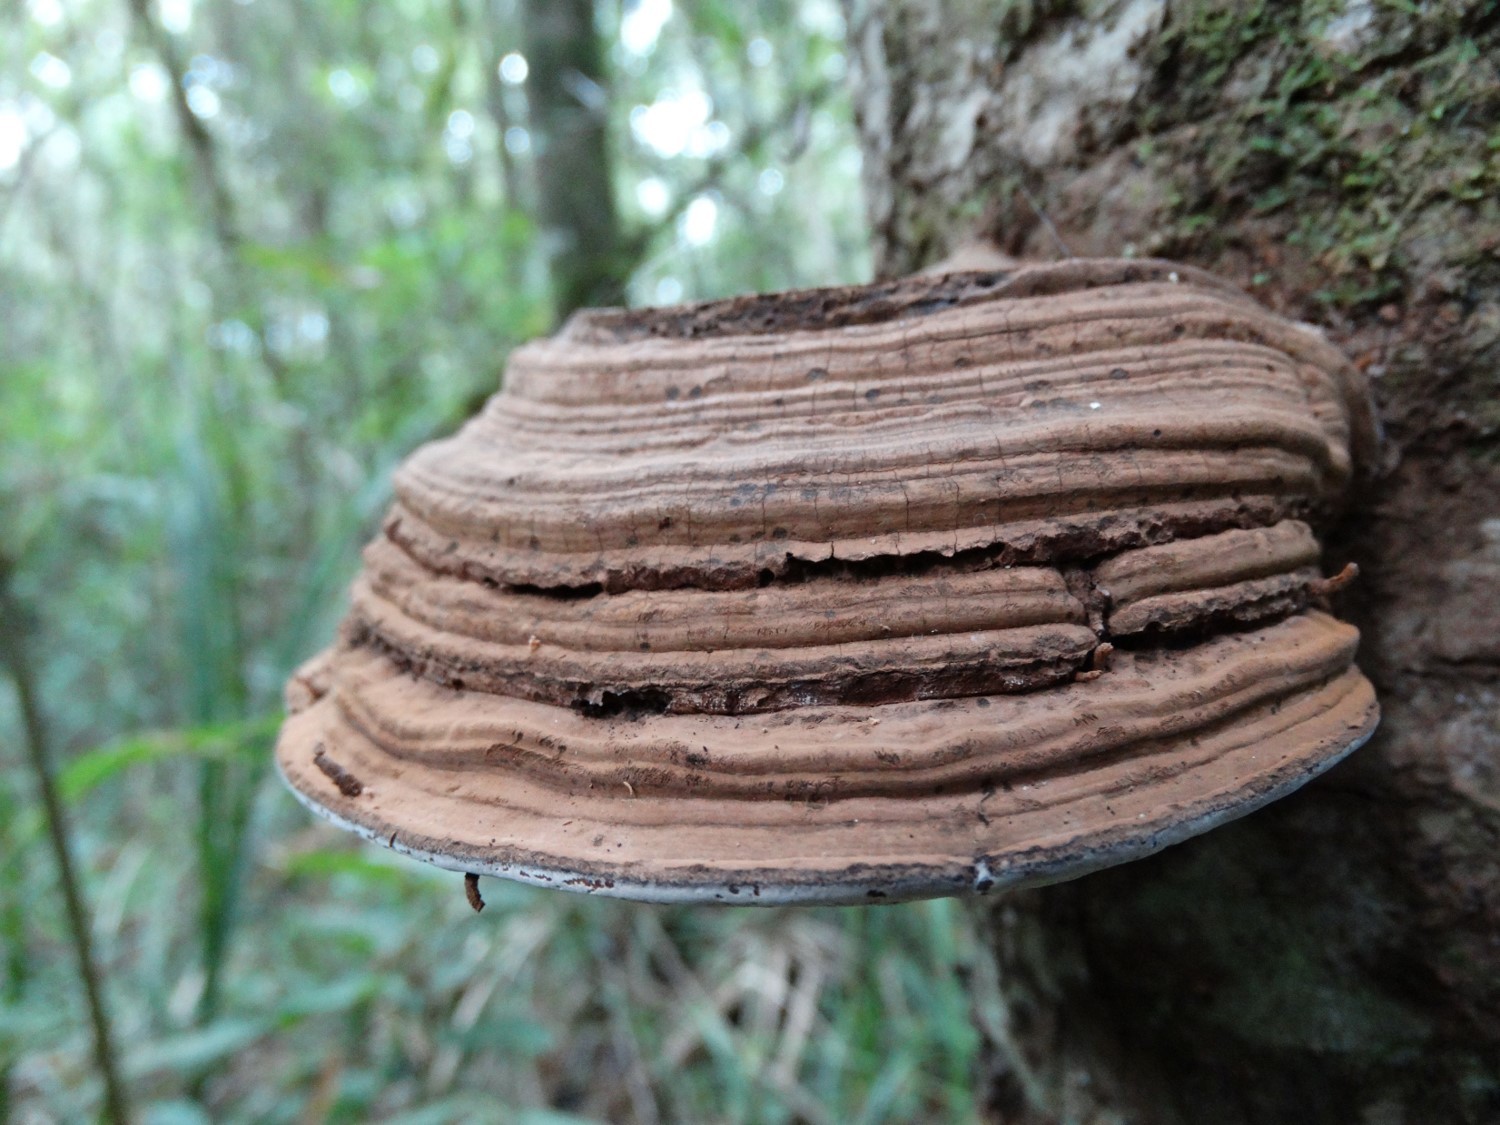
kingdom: Fungi
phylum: Basidiomycota
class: Agaricomycetes
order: Polyporales
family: Polyporaceae
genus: Ganoderma
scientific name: Ganoderma
